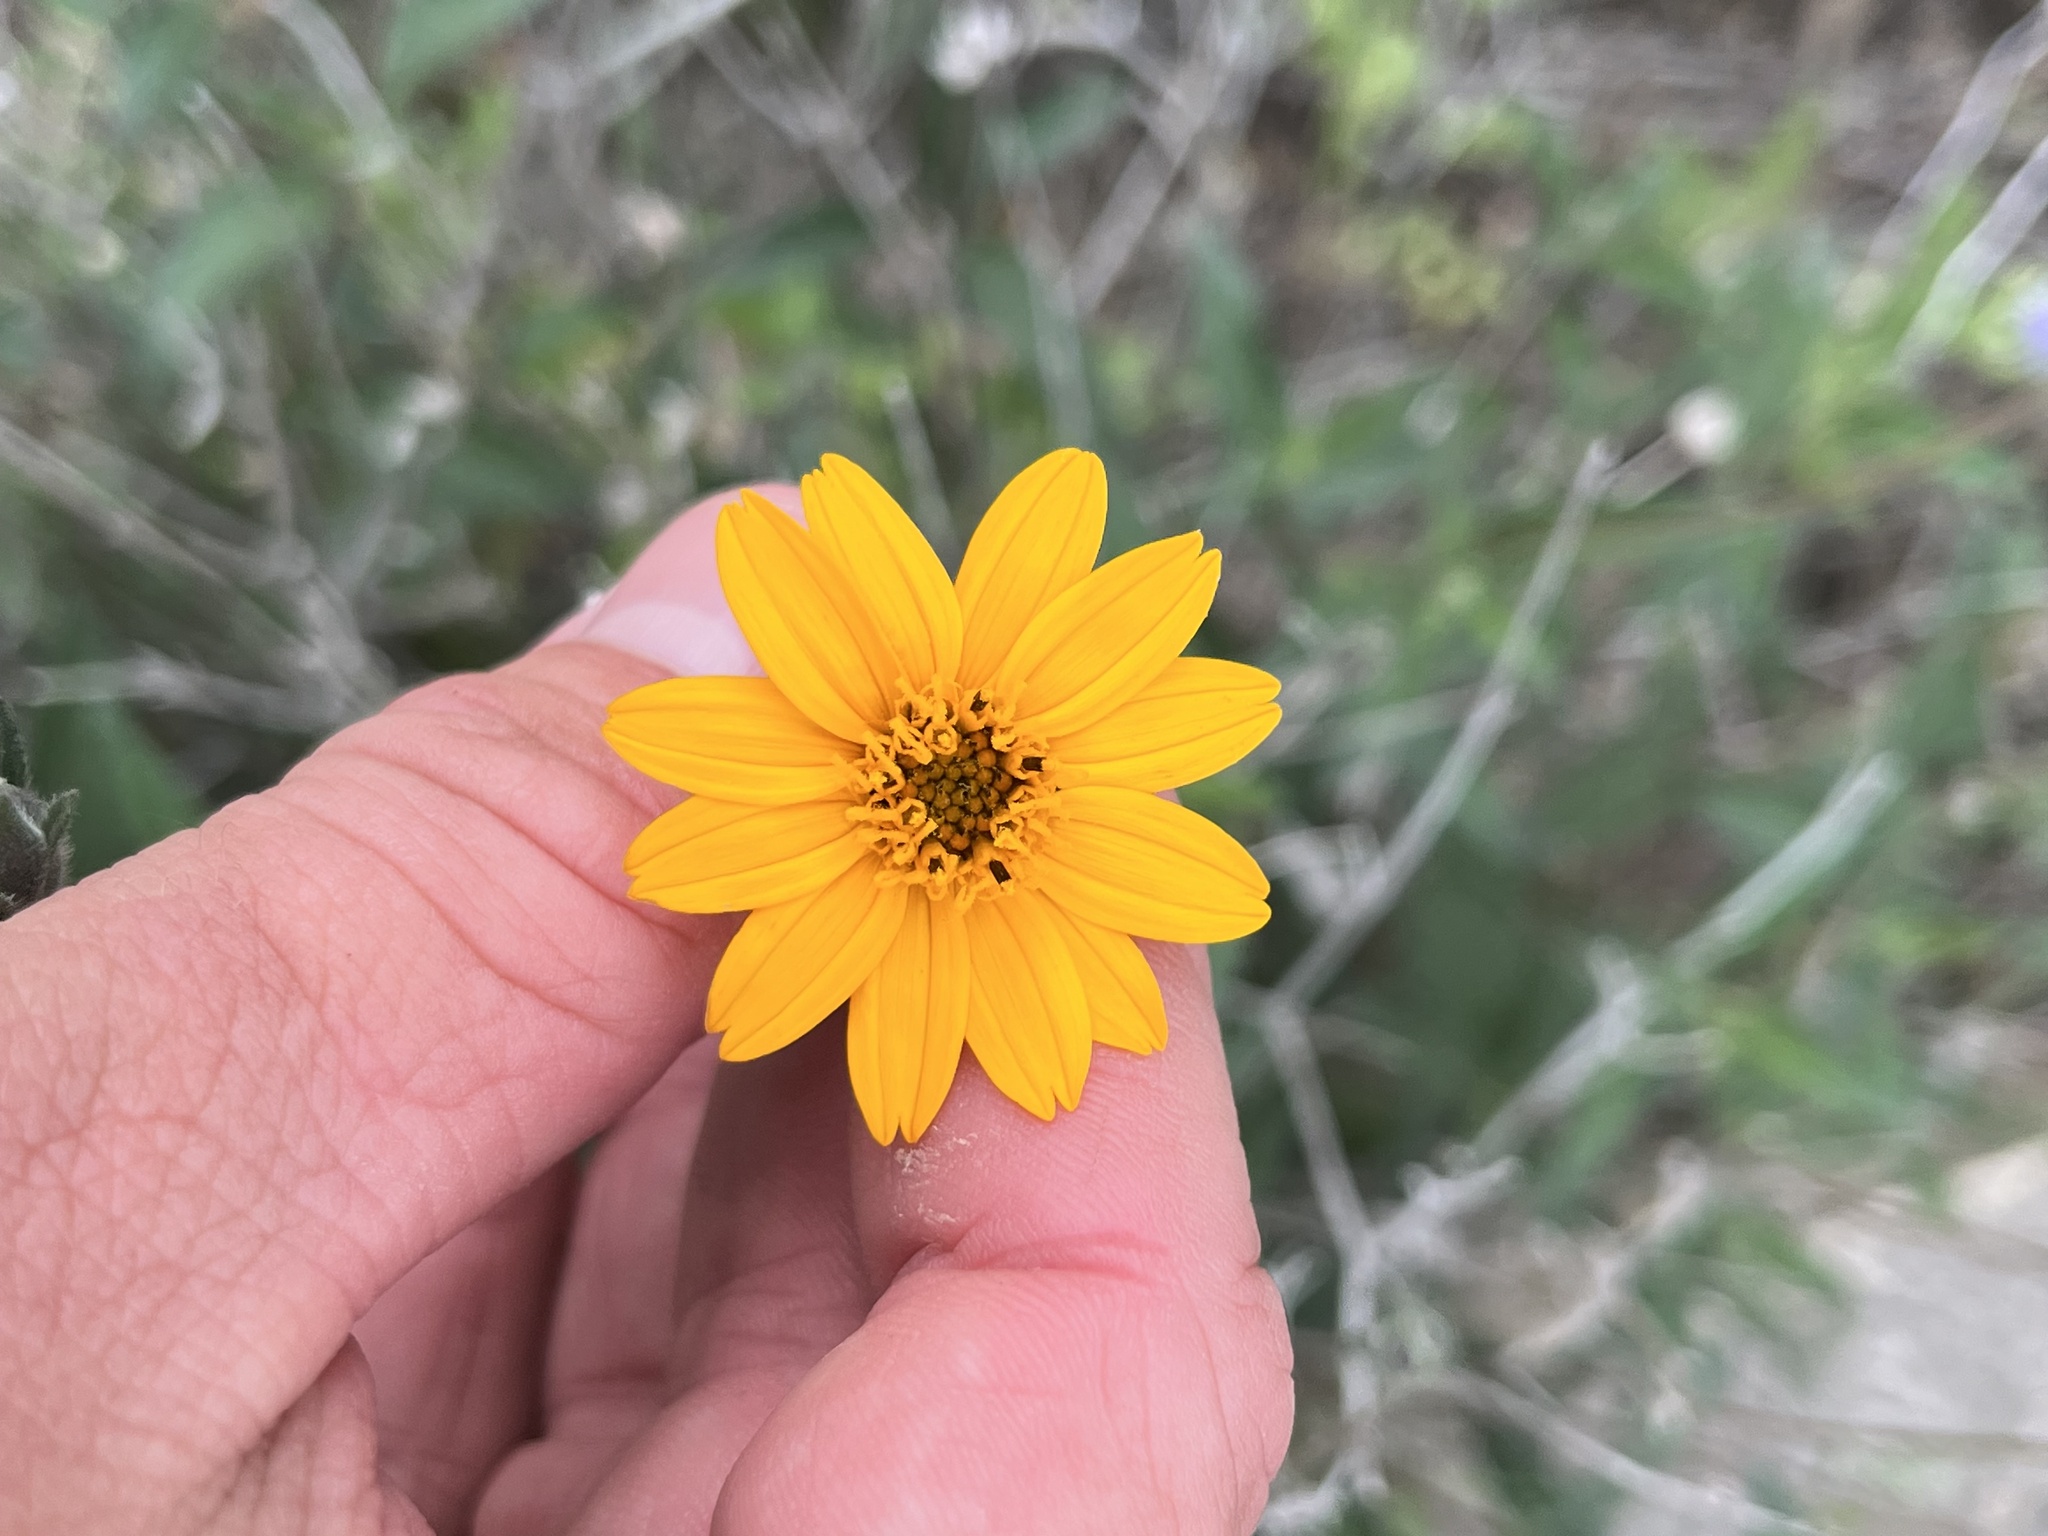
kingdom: Plantae
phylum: Tracheophyta
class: Magnoliopsida
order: Asterales
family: Asteraceae
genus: Wedelia
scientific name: Wedelia acapulcensis
